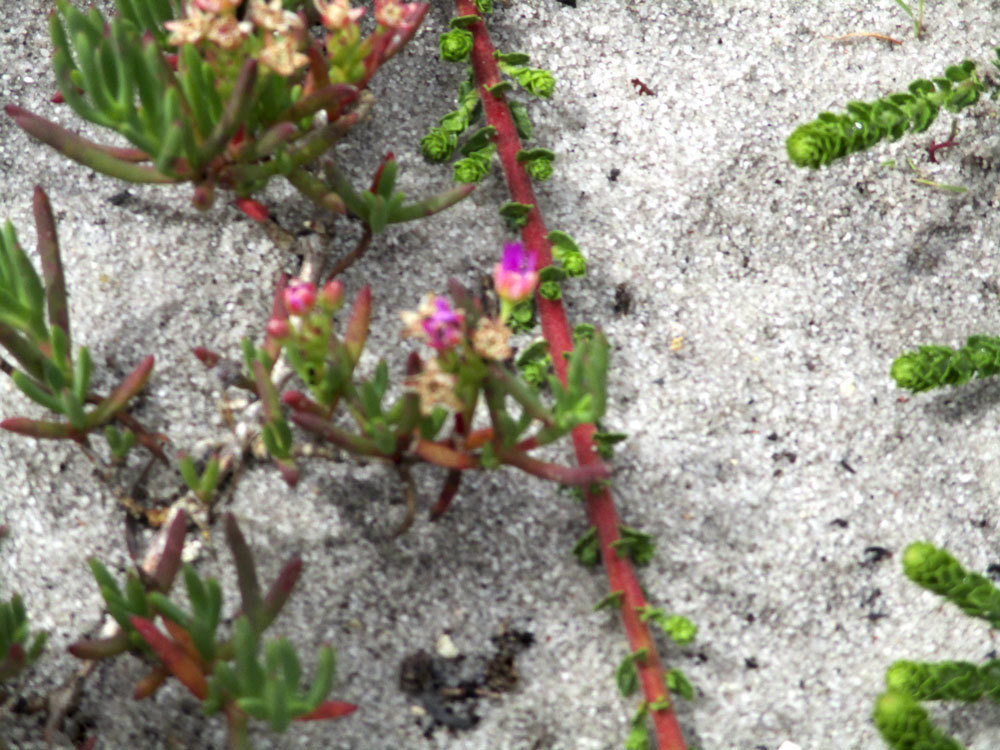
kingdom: Plantae
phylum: Tracheophyta
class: Magnoliopsida
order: Caryophyllales
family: Aizoaceae
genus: Ruschia
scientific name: Ruschia macowanii
